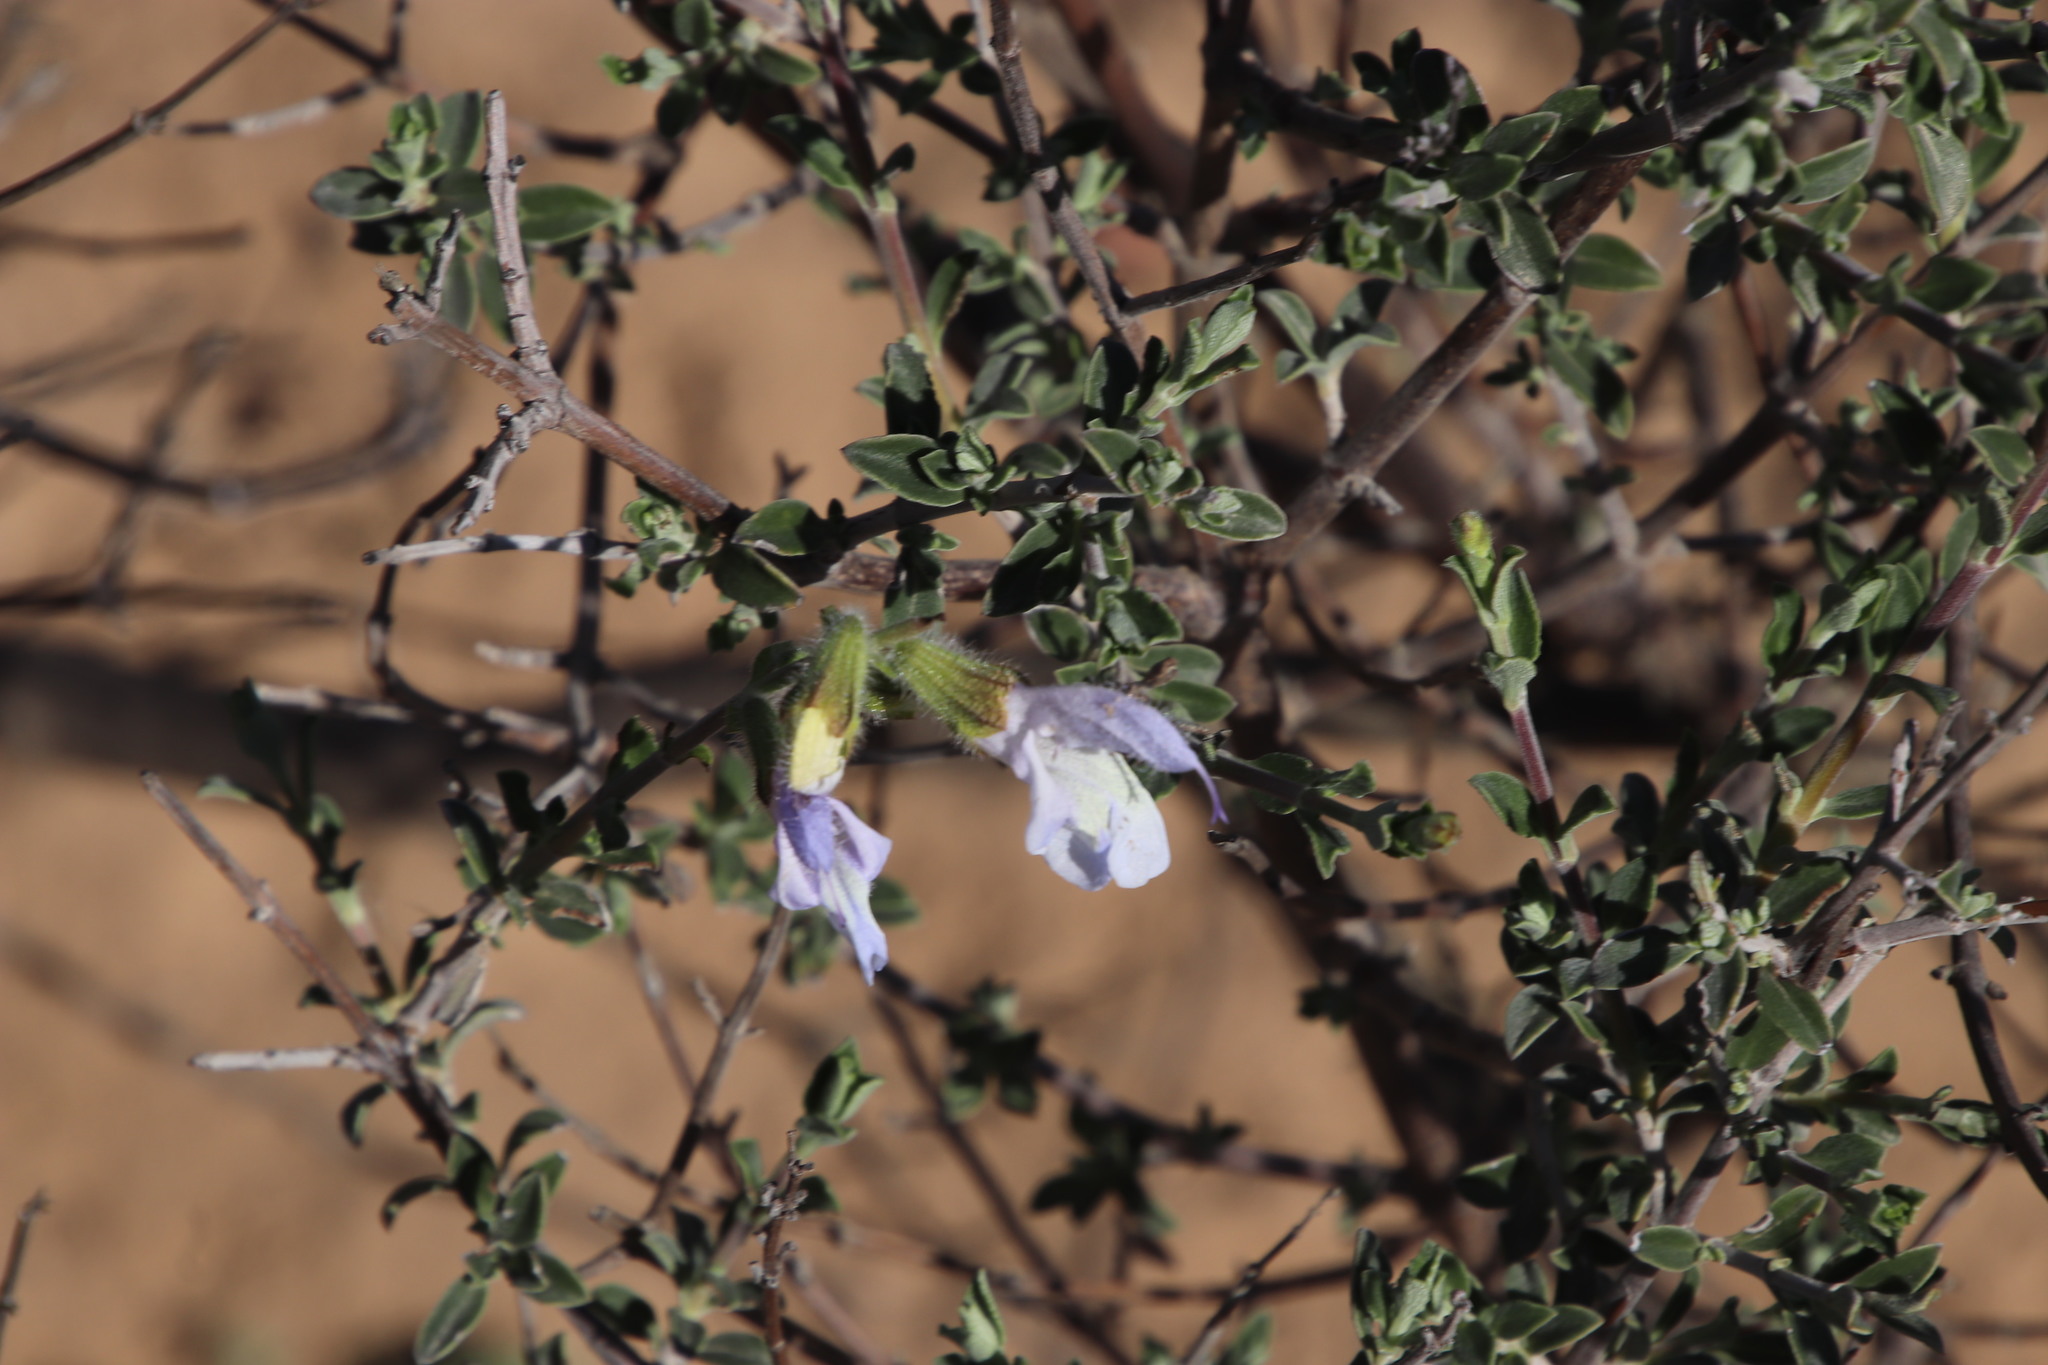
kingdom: Plantae
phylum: Tracheophyta
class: Magnoliopsida
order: Lamiales
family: Lamiaceae
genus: Salvia
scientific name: Salvia africana
